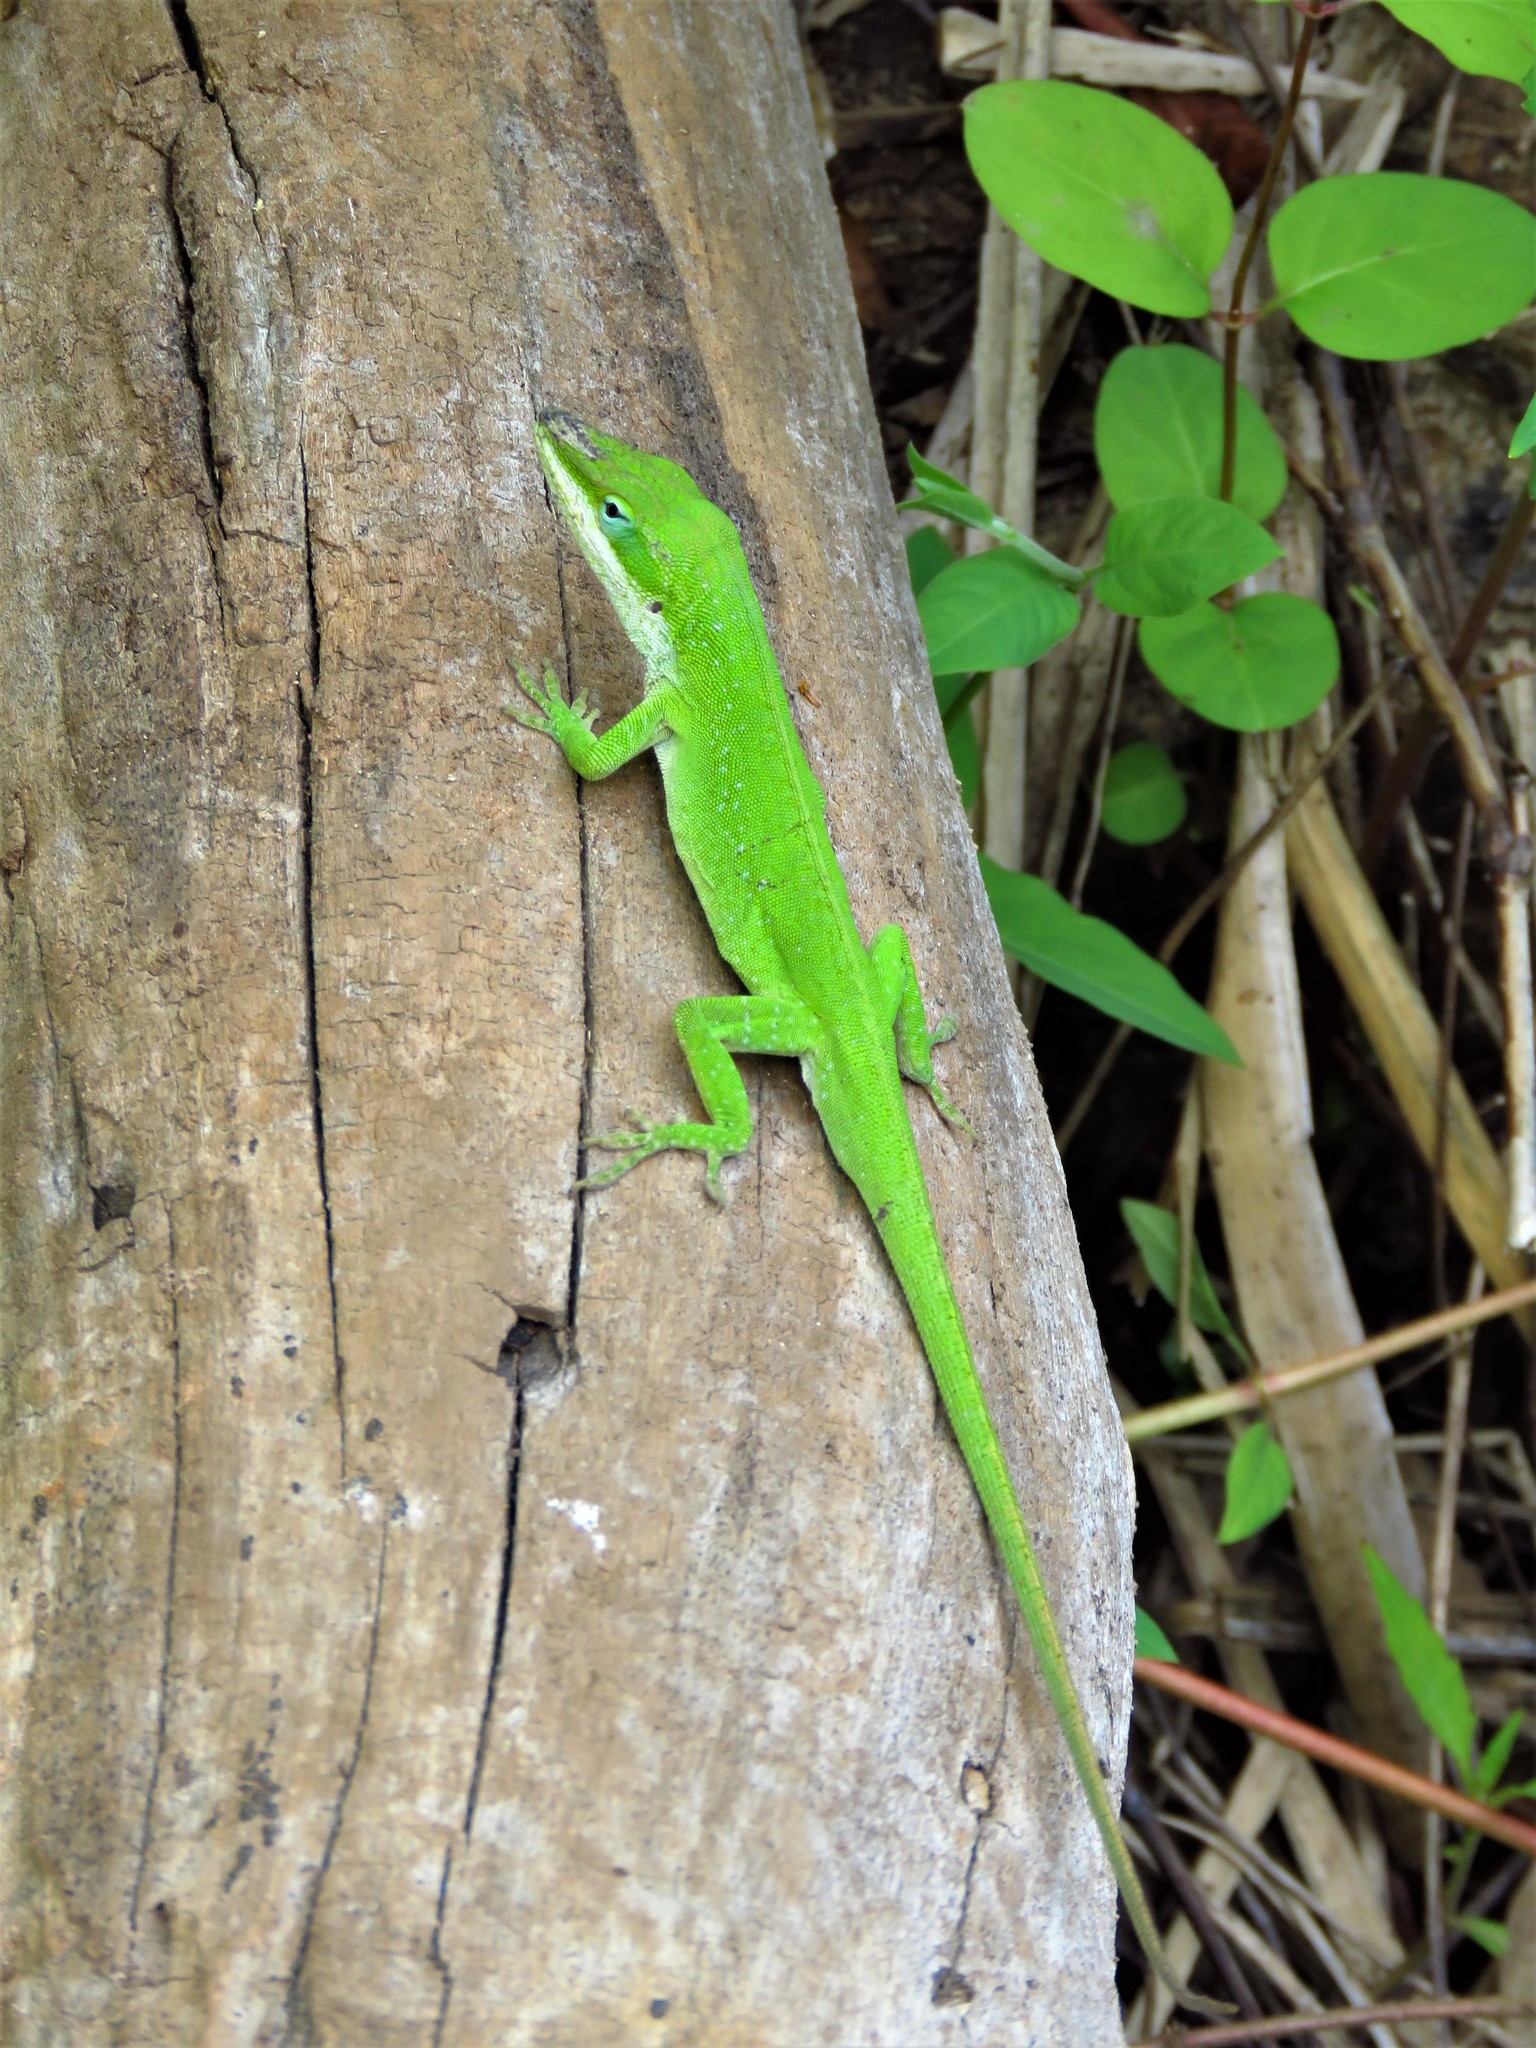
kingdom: Animalia
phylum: Chordata
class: Squamata
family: Dactyloidae
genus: Anolis
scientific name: Anolis carolinensis
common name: Green anole
